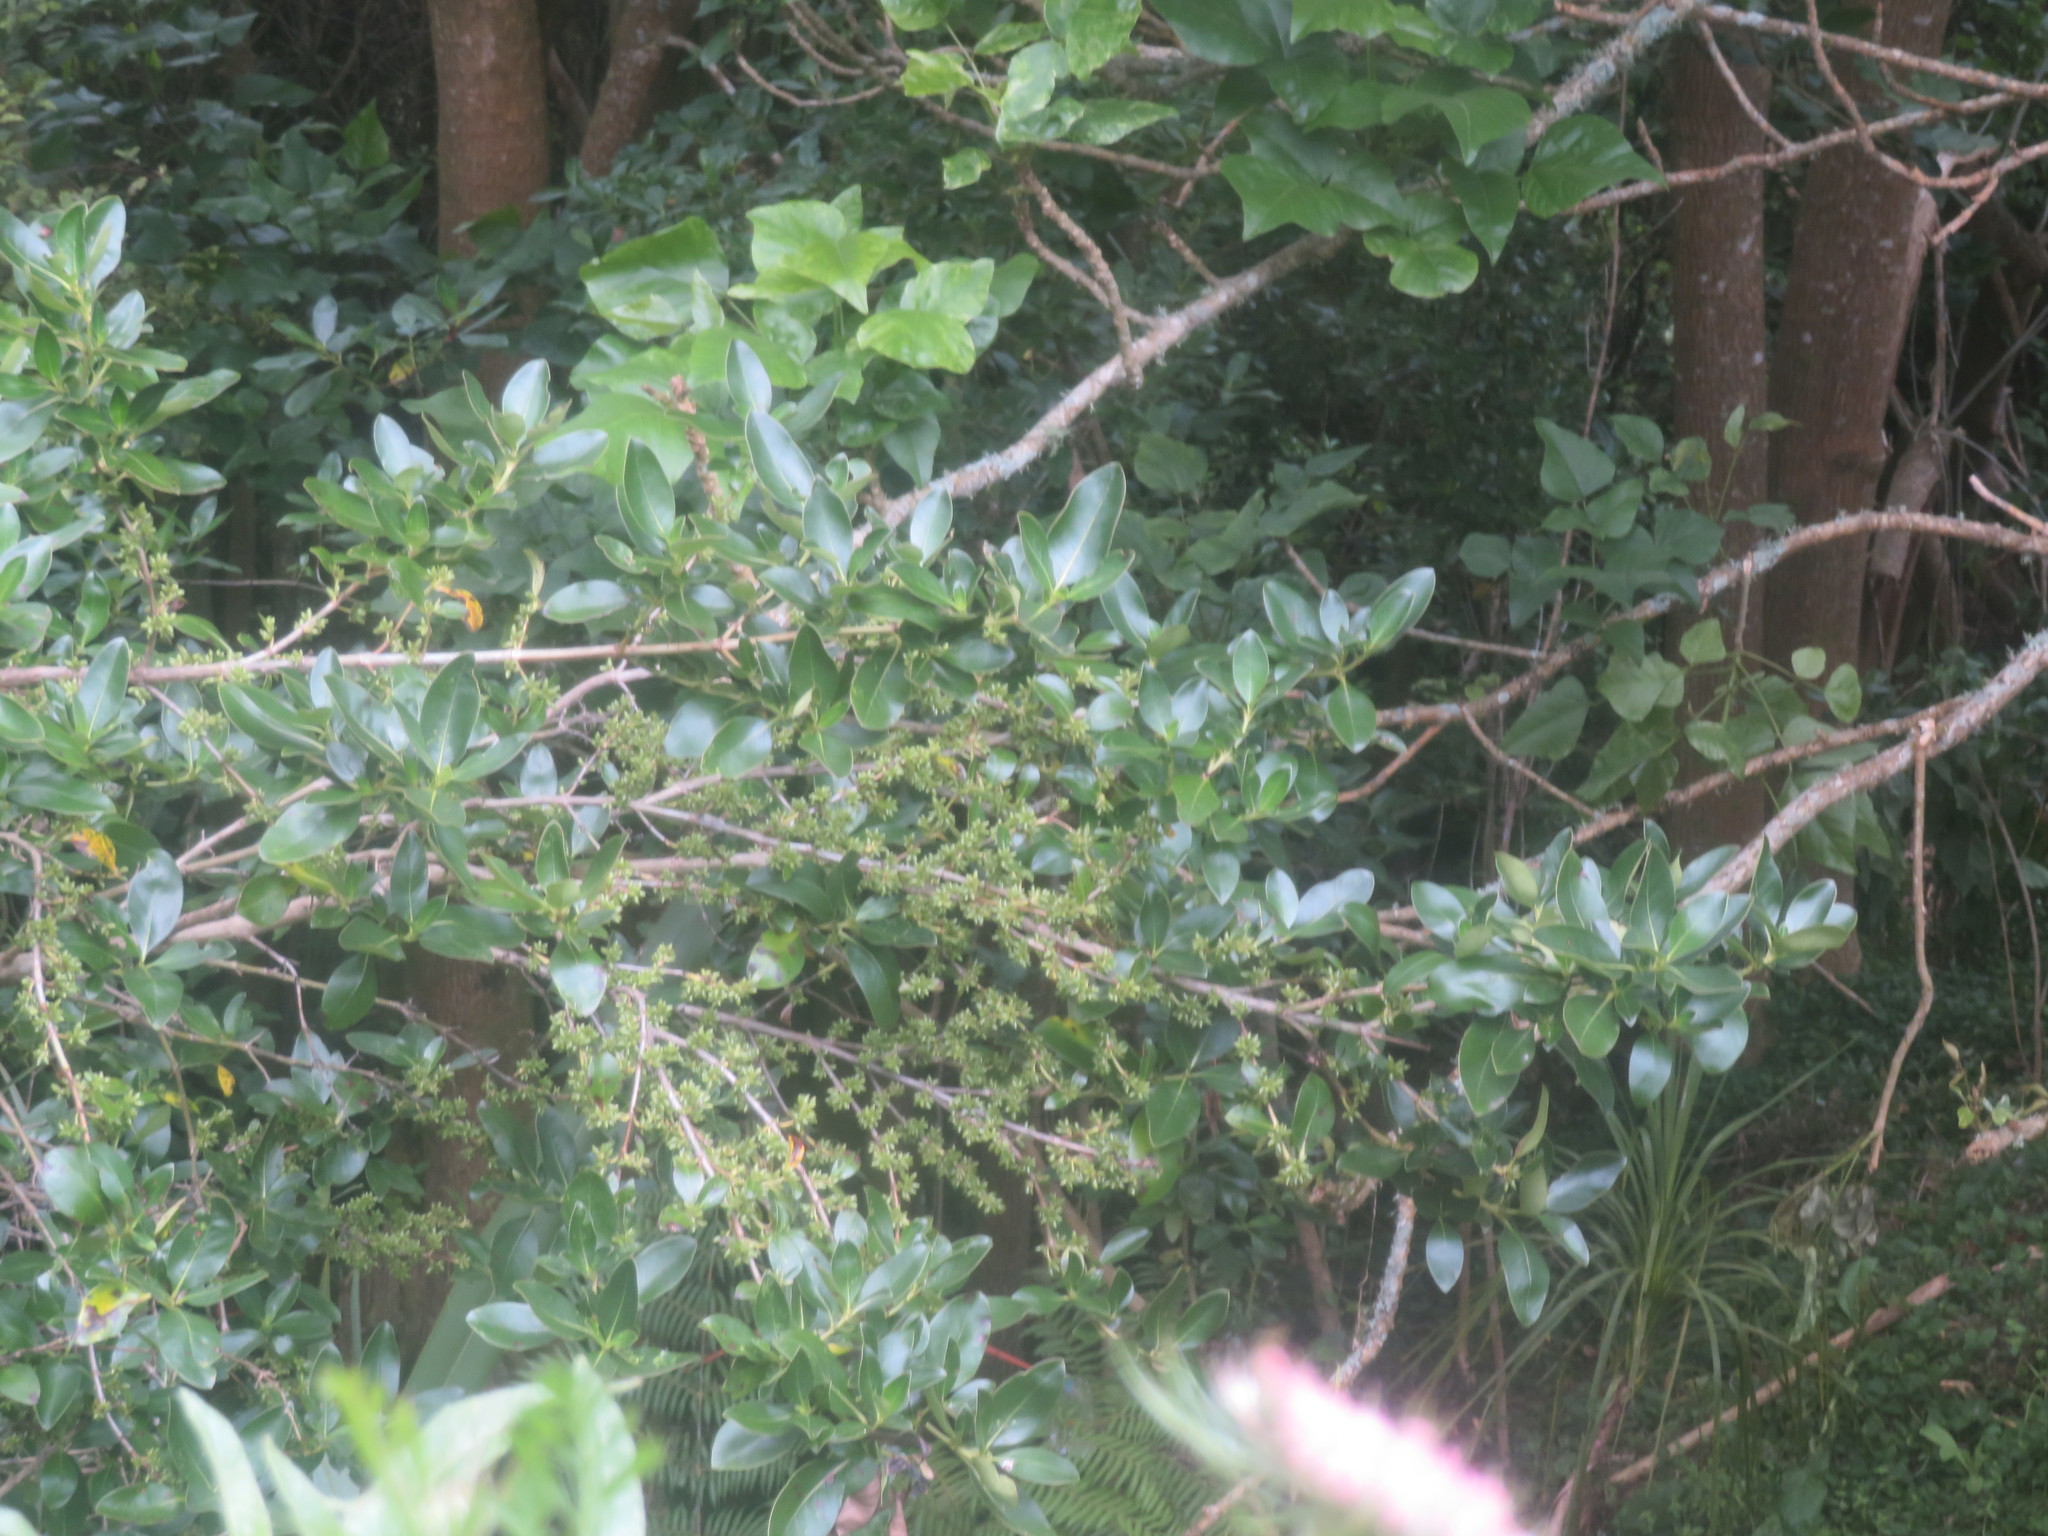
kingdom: Plantae
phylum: Tracheophyta
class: Magnoliopsida
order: Gentianales
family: Rubiaceae
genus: Coprosma
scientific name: Coprosma robusta
